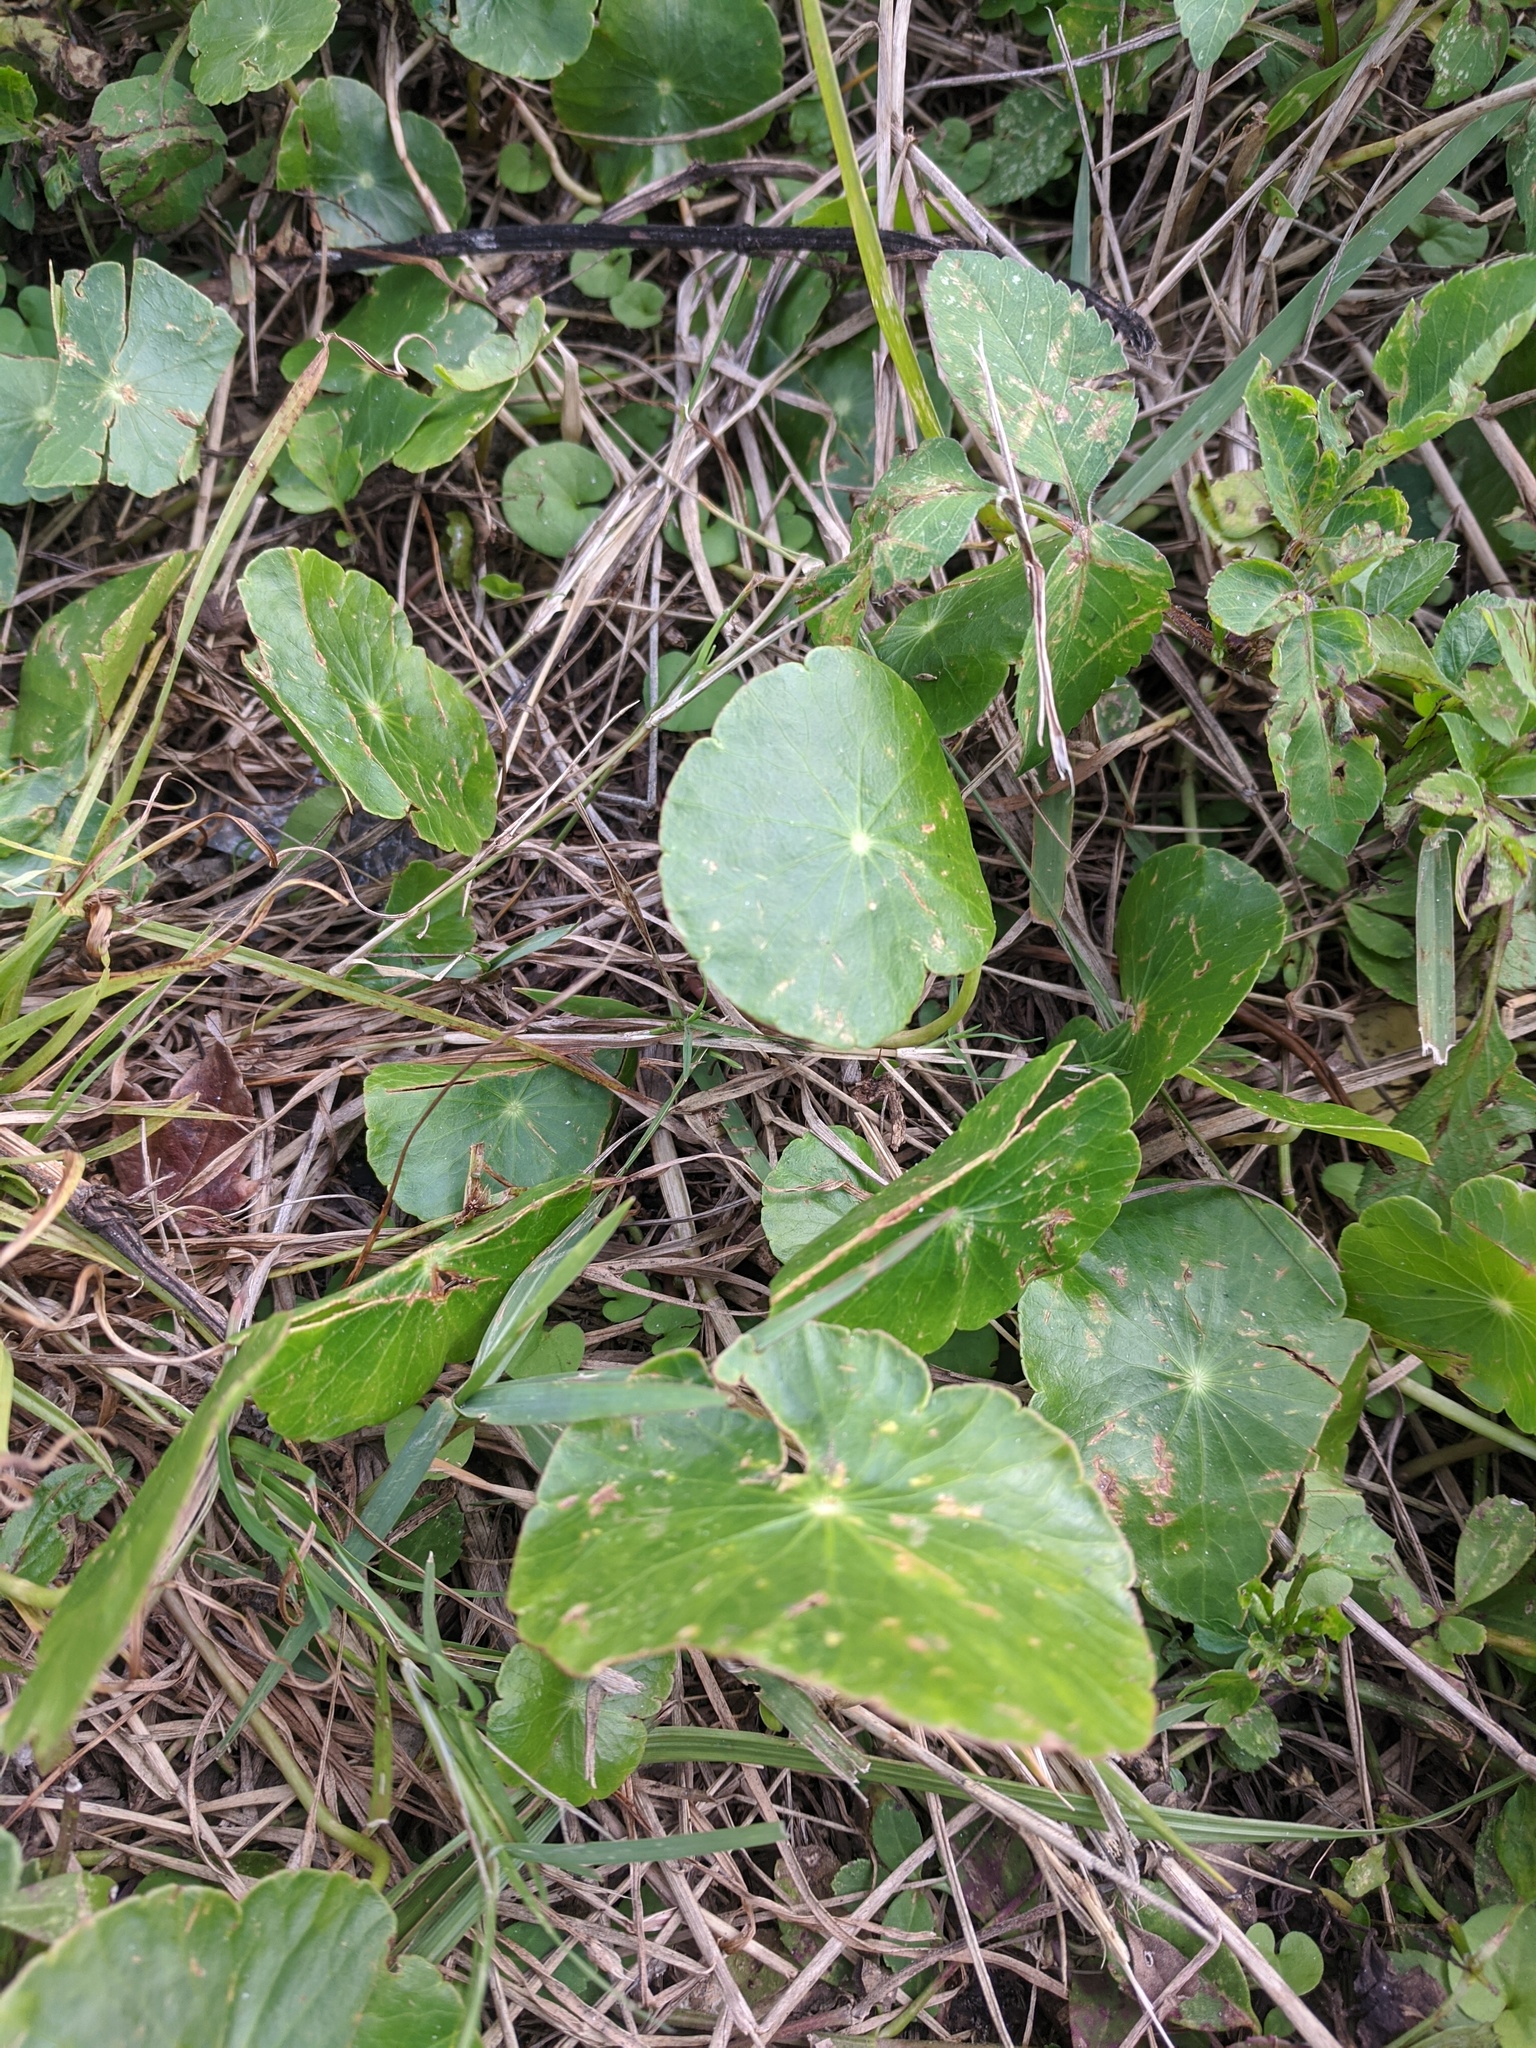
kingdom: Plantae
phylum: Tracheophyta
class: Magnoliopsida
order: Apiales
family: Araliaceae
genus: Hydrocotyle
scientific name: Hydrocotyle
